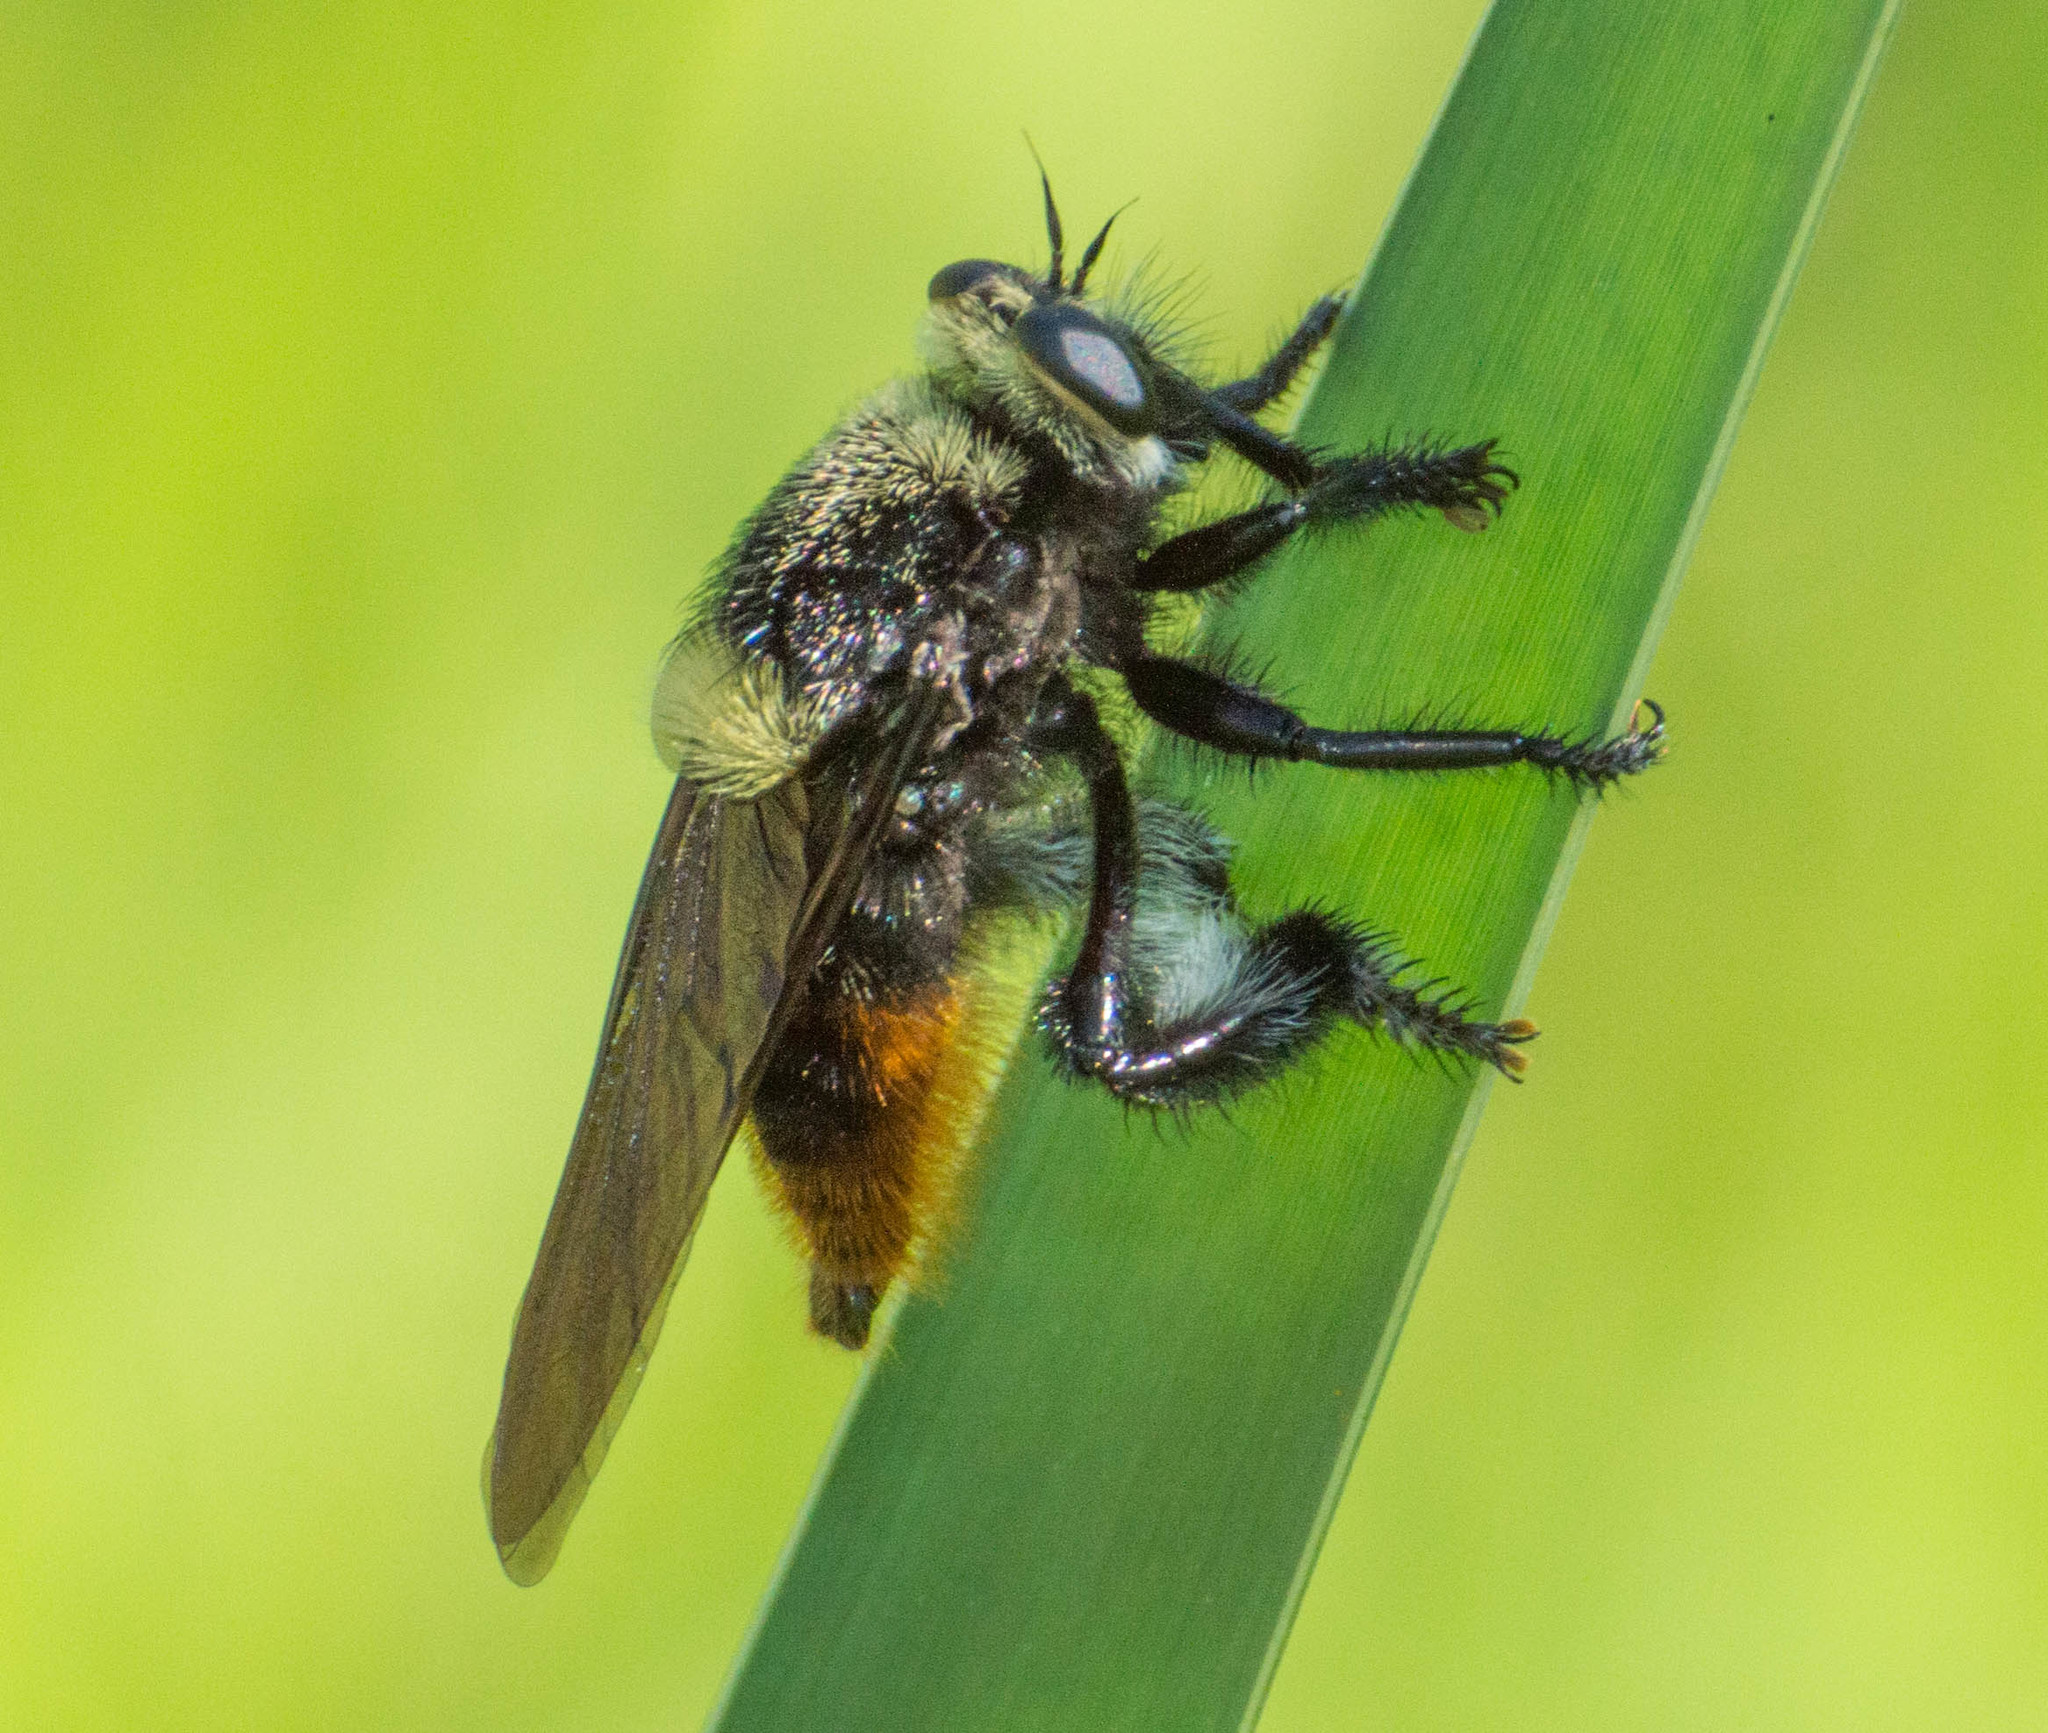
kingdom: Animalia
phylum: Arthropoda
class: Insecta
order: Diptera
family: Asilidae
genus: Mallophora
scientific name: Mallophora ruficauda
